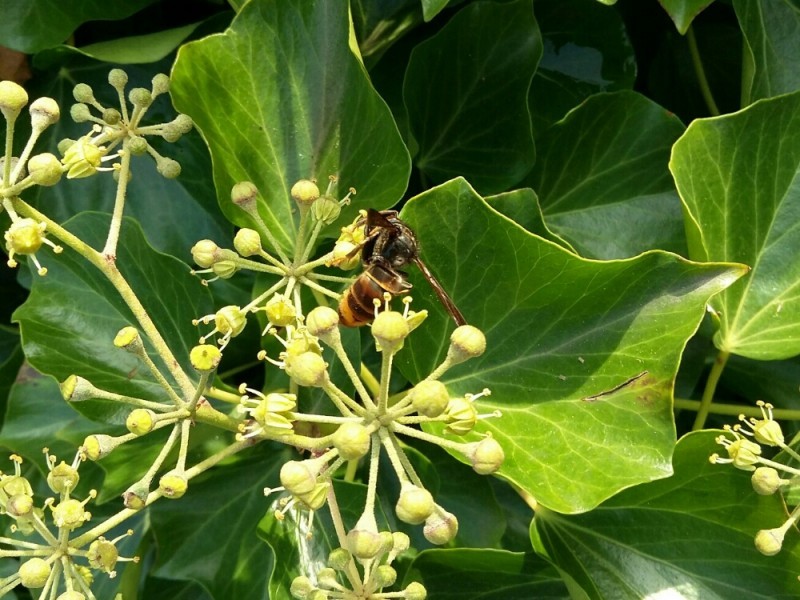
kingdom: Animalia
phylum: Arthropoda
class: Insecta
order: Hymenoptera
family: Vespidae
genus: Vespa
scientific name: Vespa velutina
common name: Asian hornet
